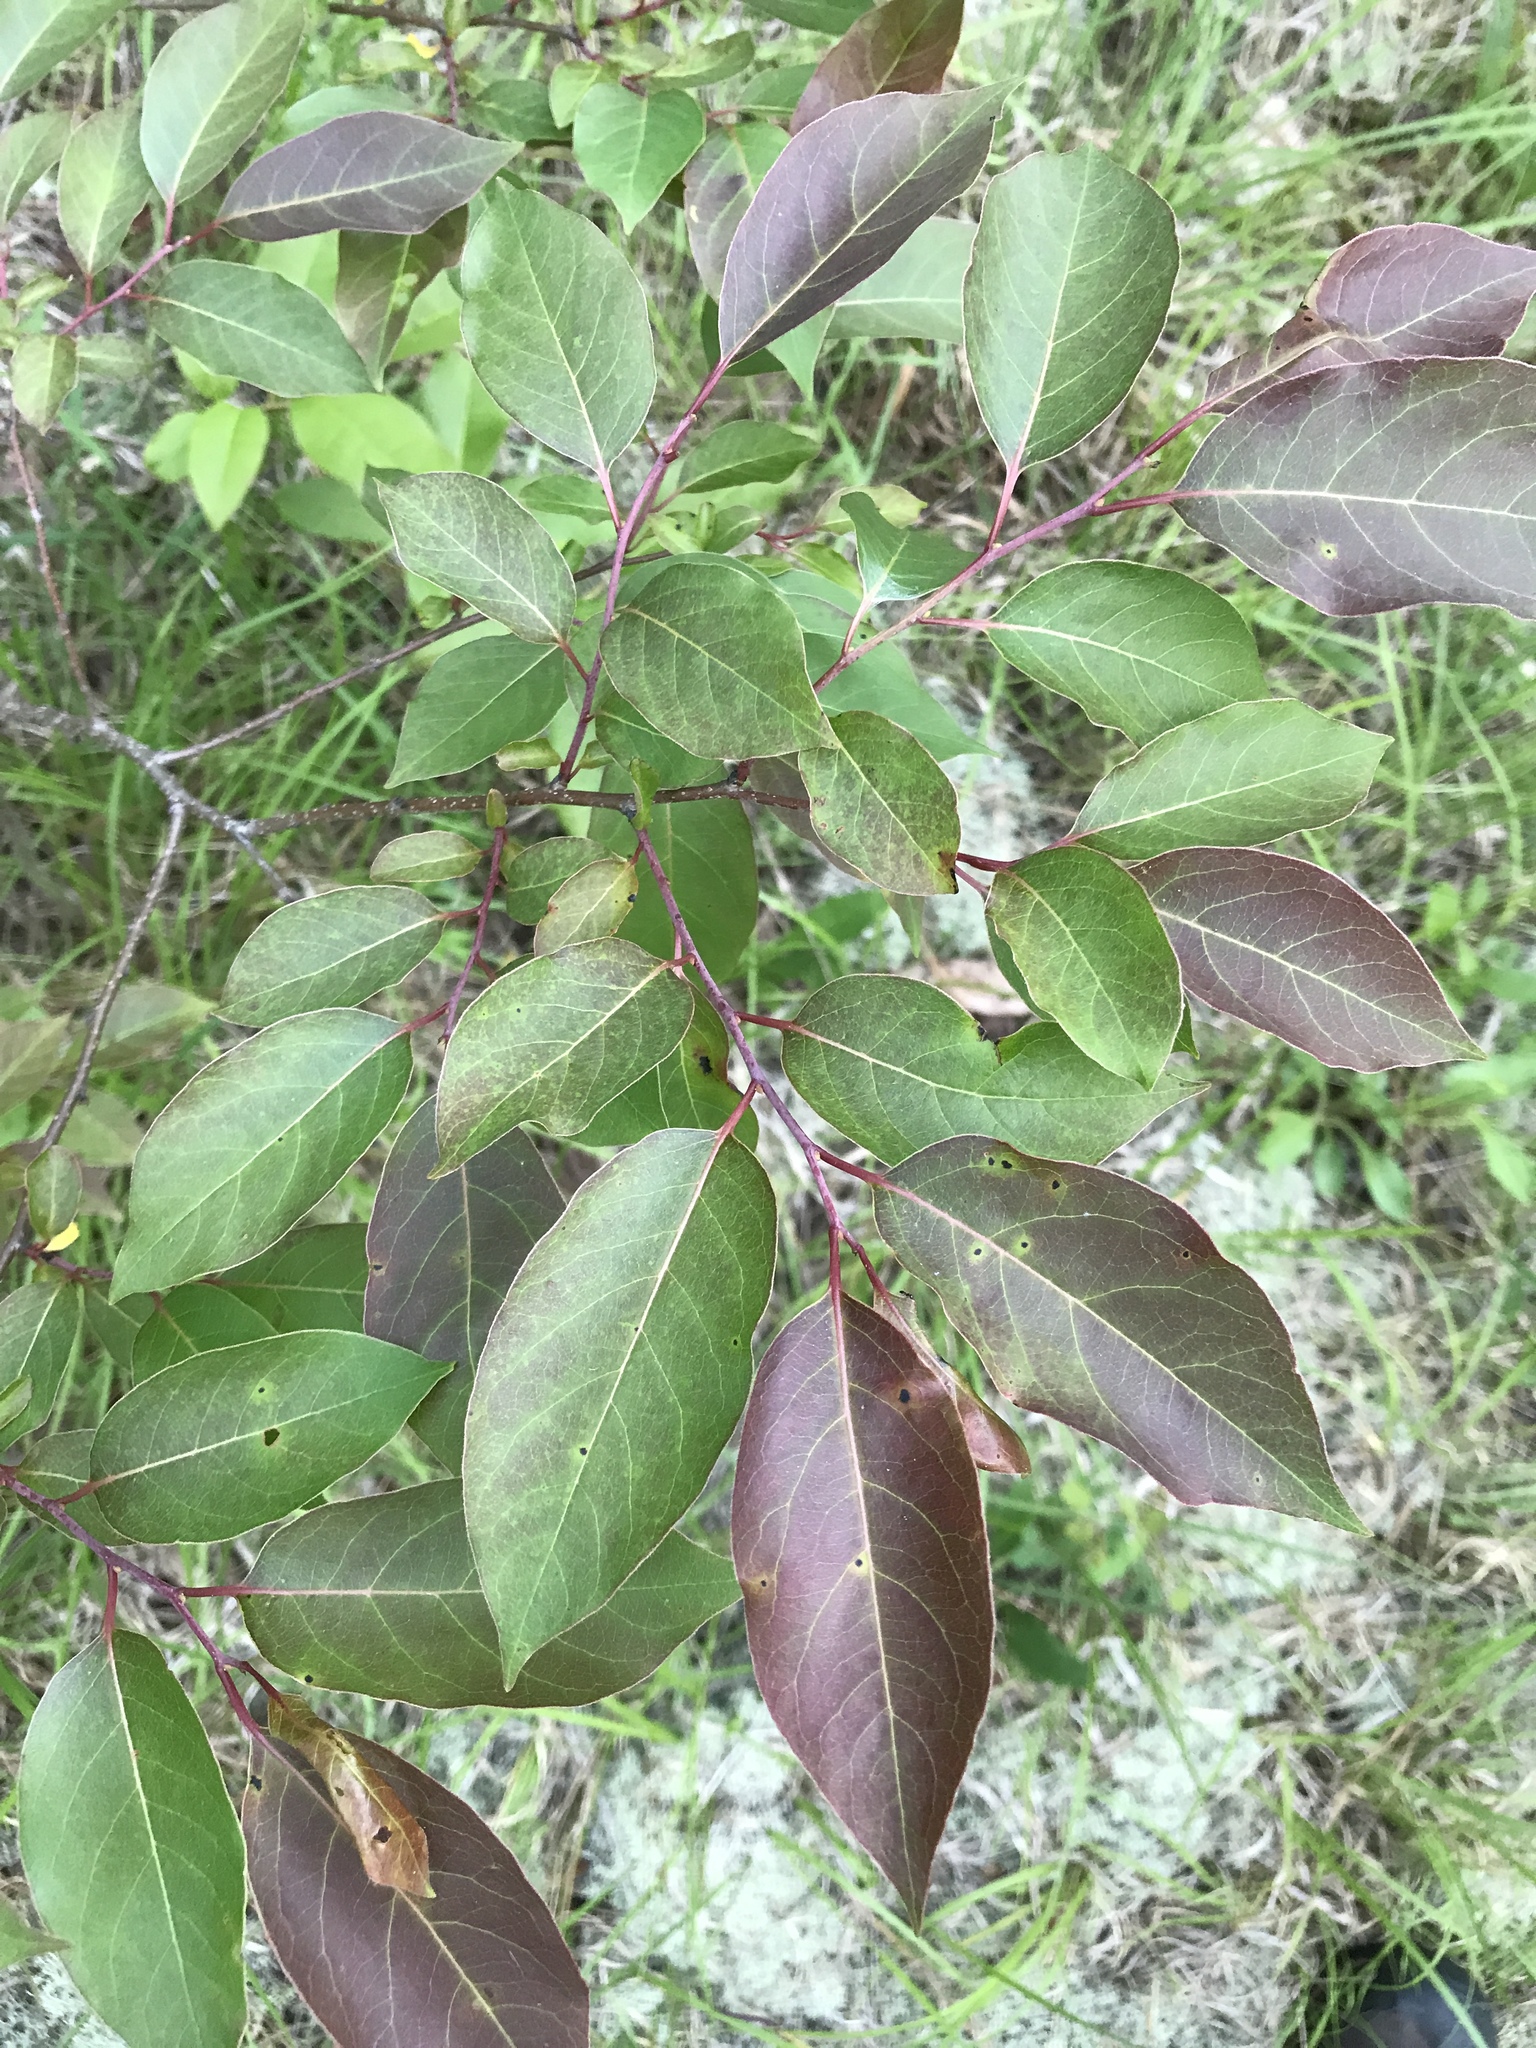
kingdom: Plantae
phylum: Tracheophyta
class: Magnoliopsida
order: Ericales
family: Ebenaceae
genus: Diospyros
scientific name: Diospyros virginiana
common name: Persimmon
